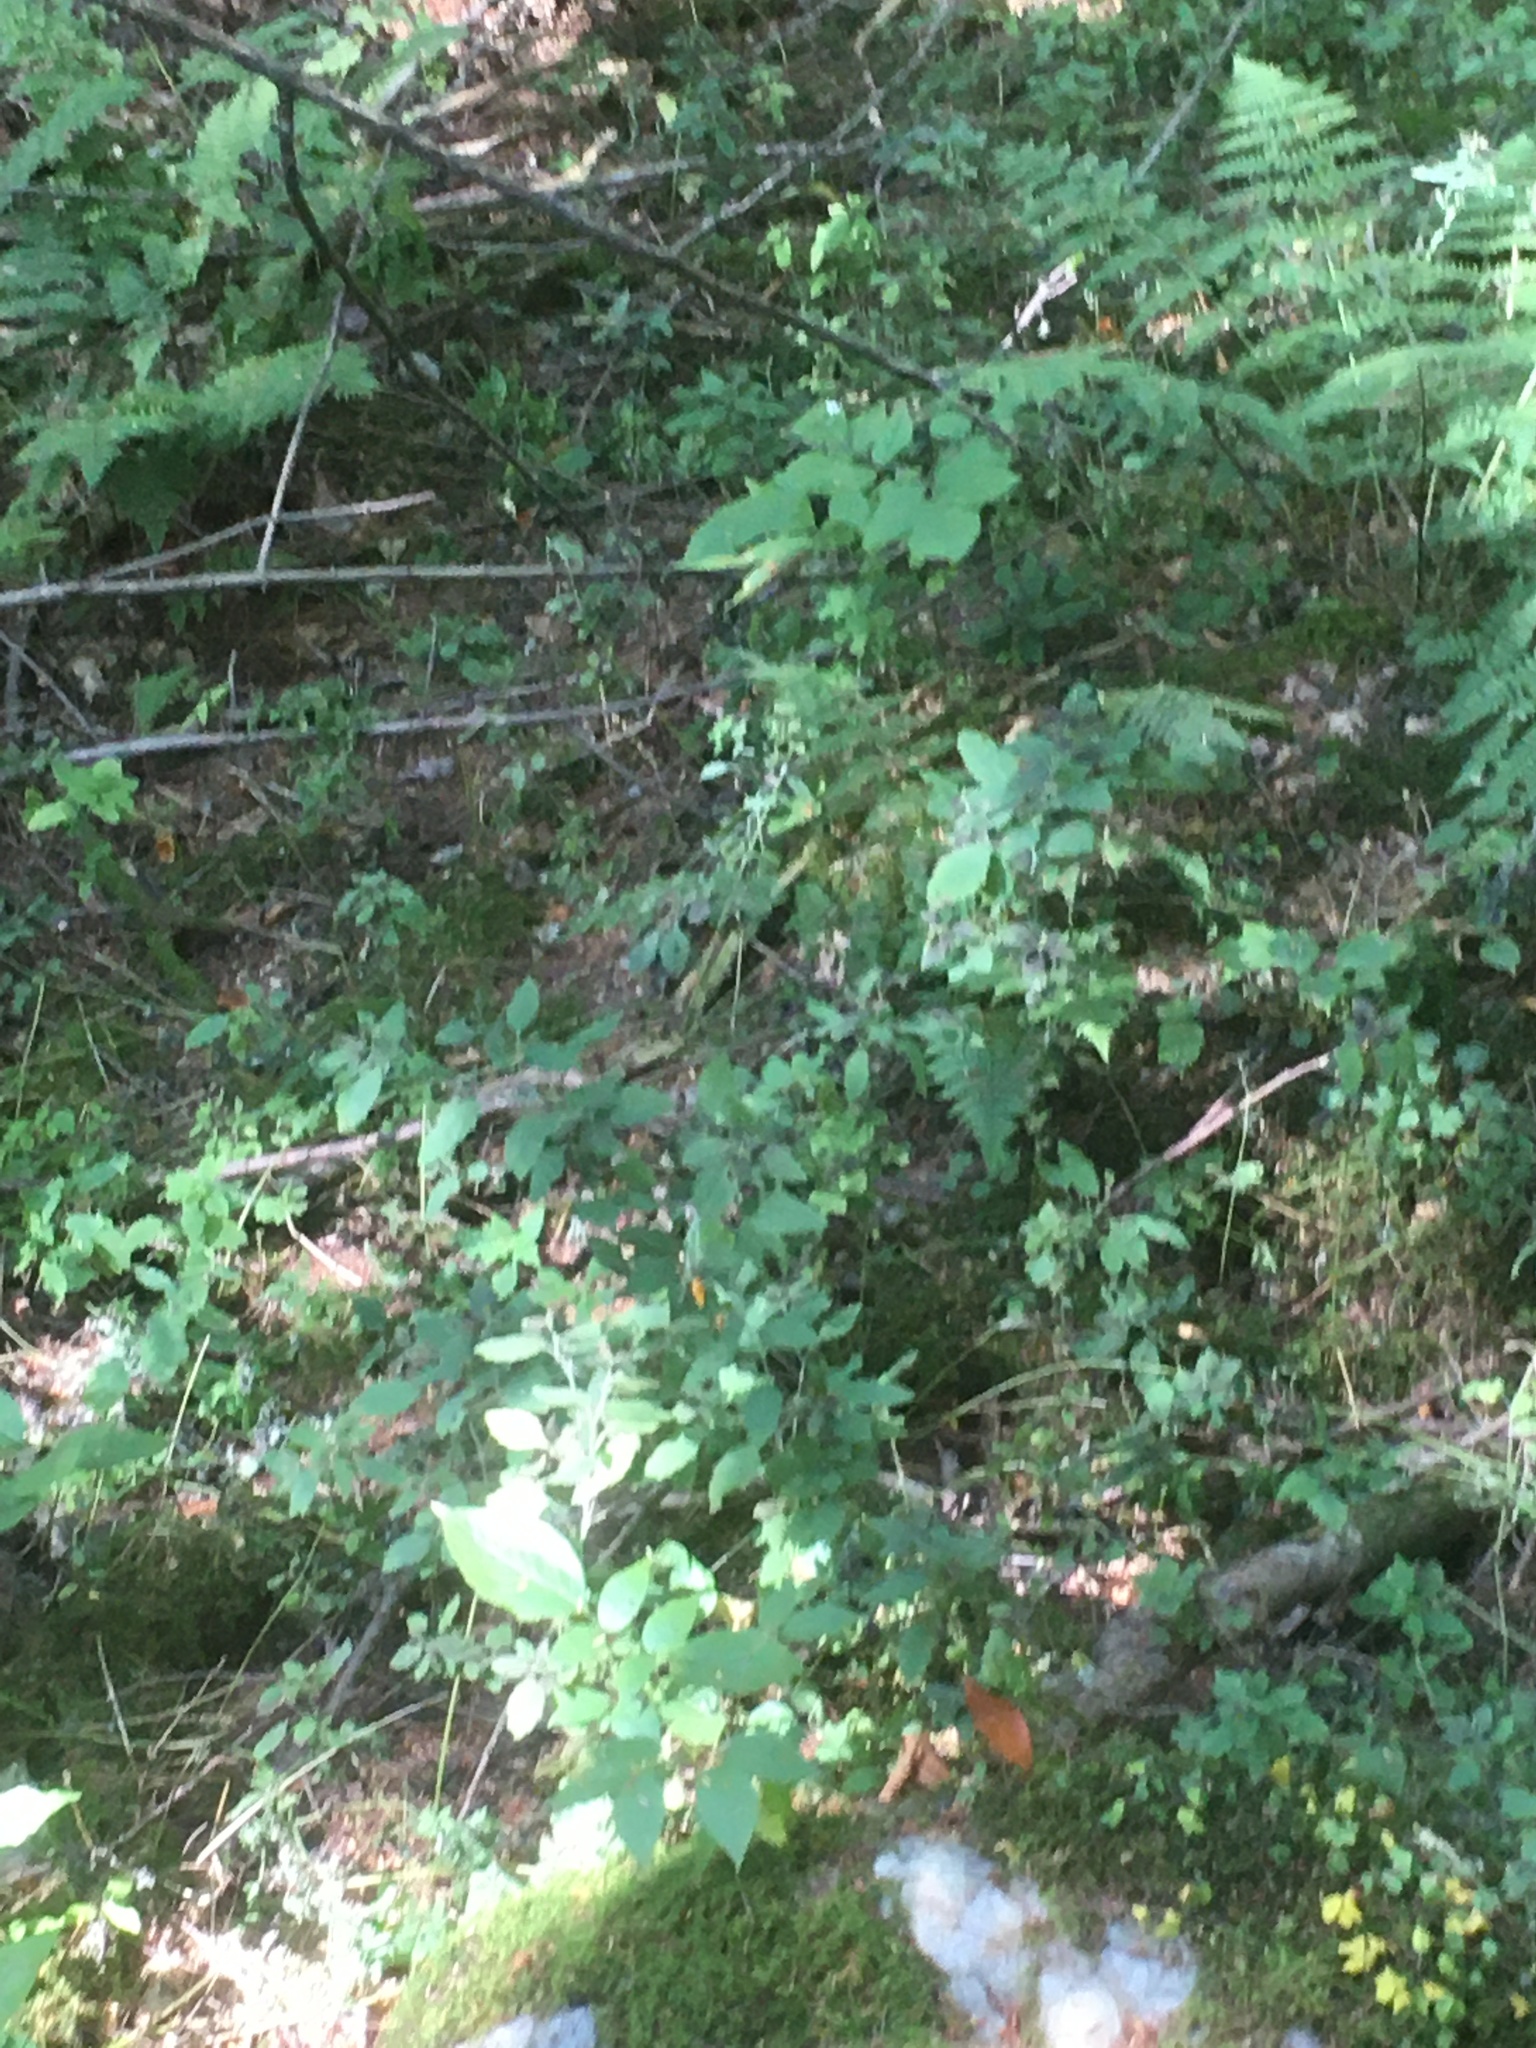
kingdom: Plantae
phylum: Tracheophyta
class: Magnoliopsida
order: Ericales
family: Balsaminaceae
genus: Impatiens
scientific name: Impatiens capensis
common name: Orange balsam
